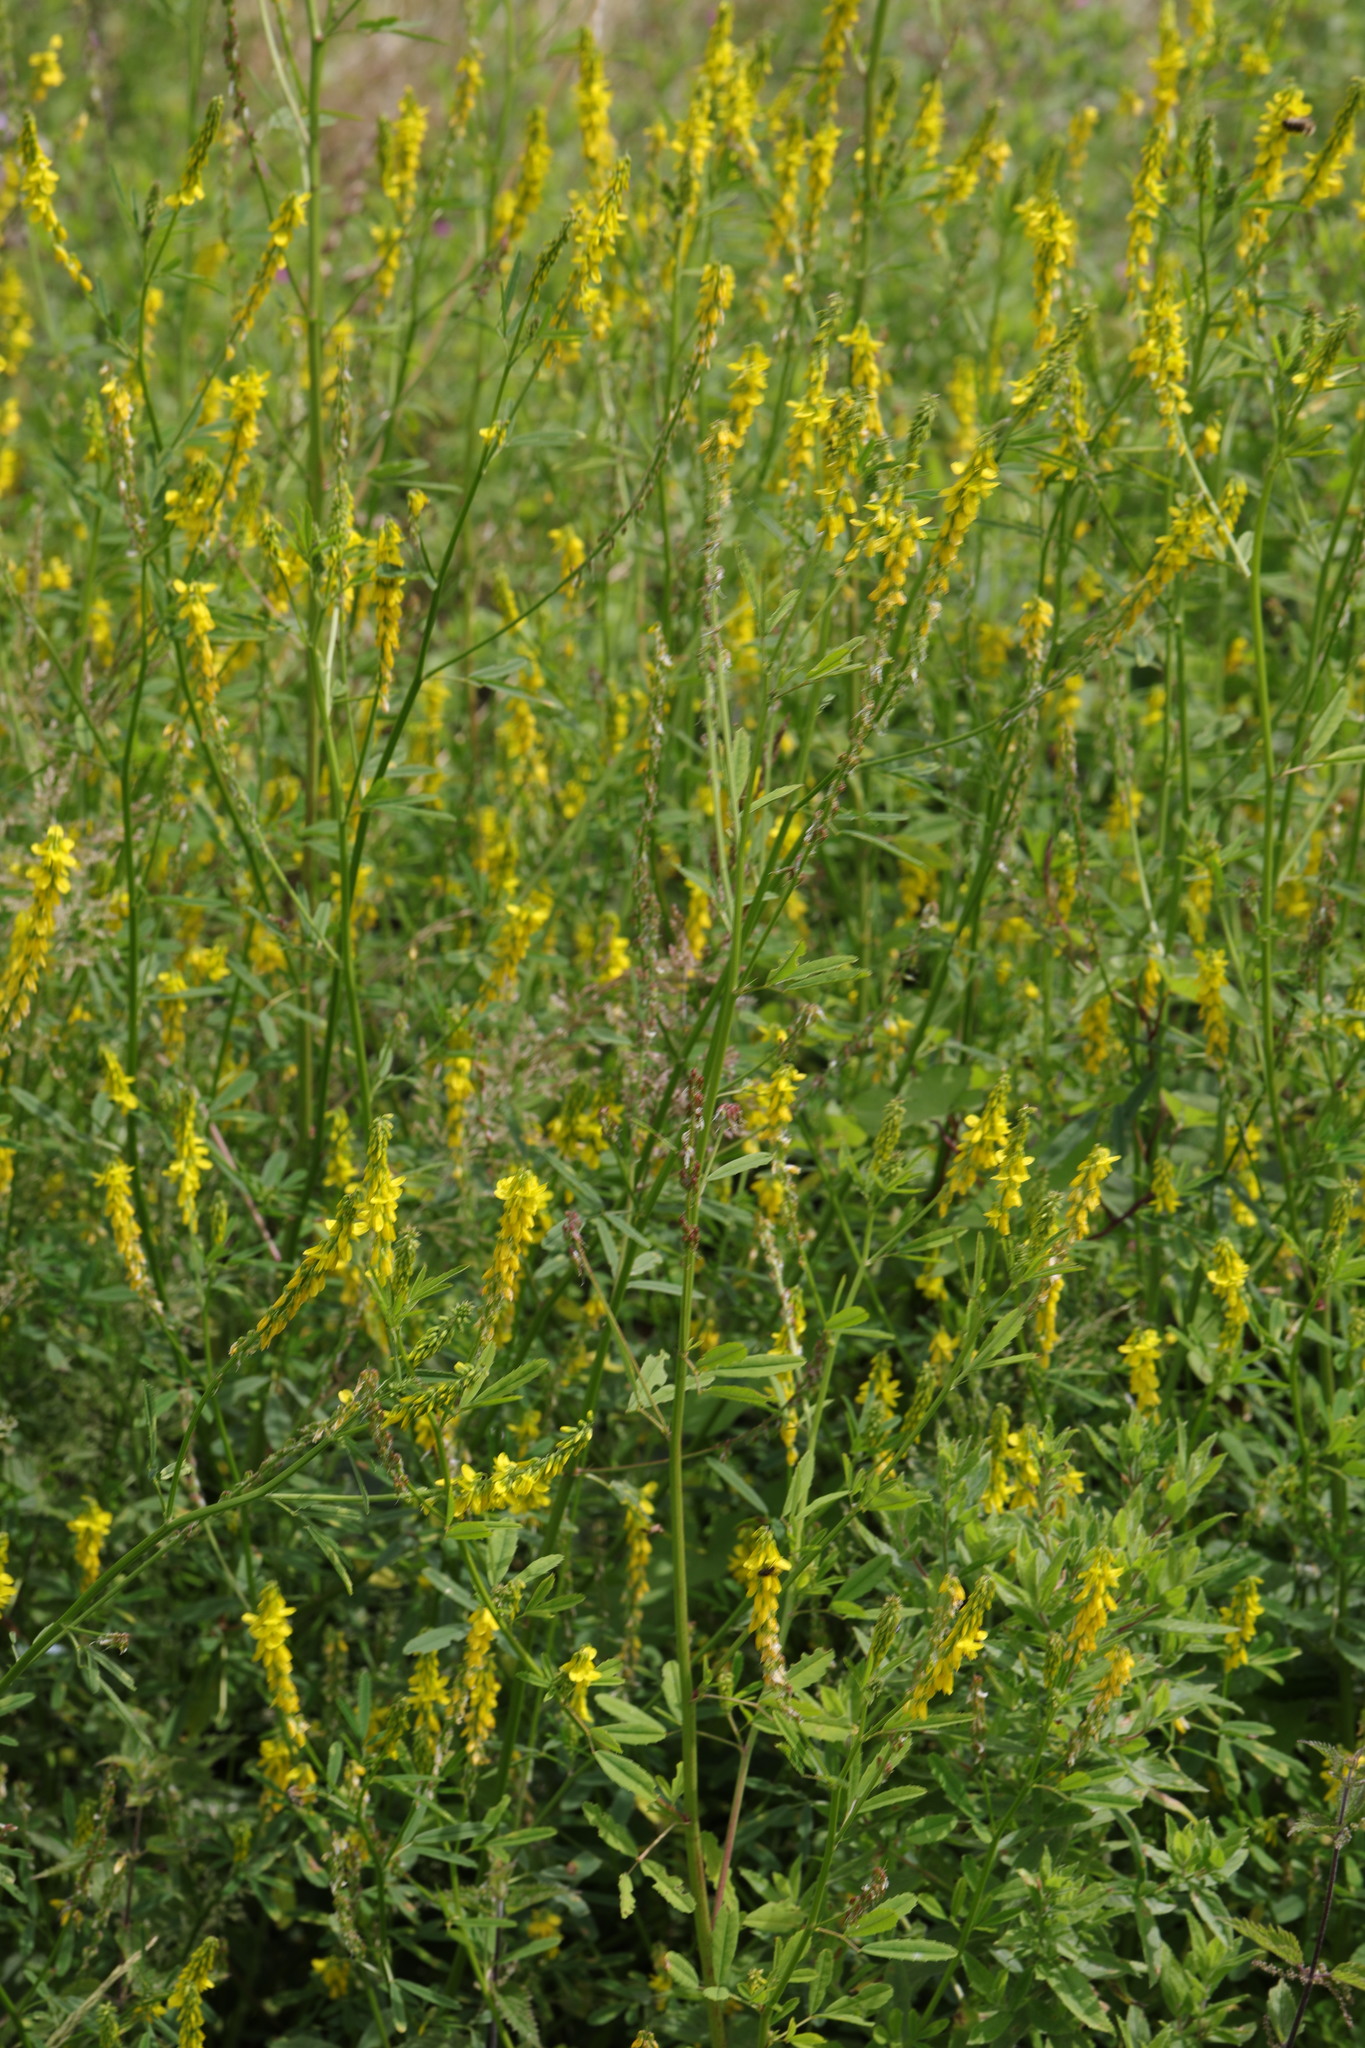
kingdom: Plantae
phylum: Tracheophyta
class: Magnoliopsida
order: Fabales
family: Fabaceae
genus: Melilotus
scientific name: Melilotus officinalis
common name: Sweetclover
